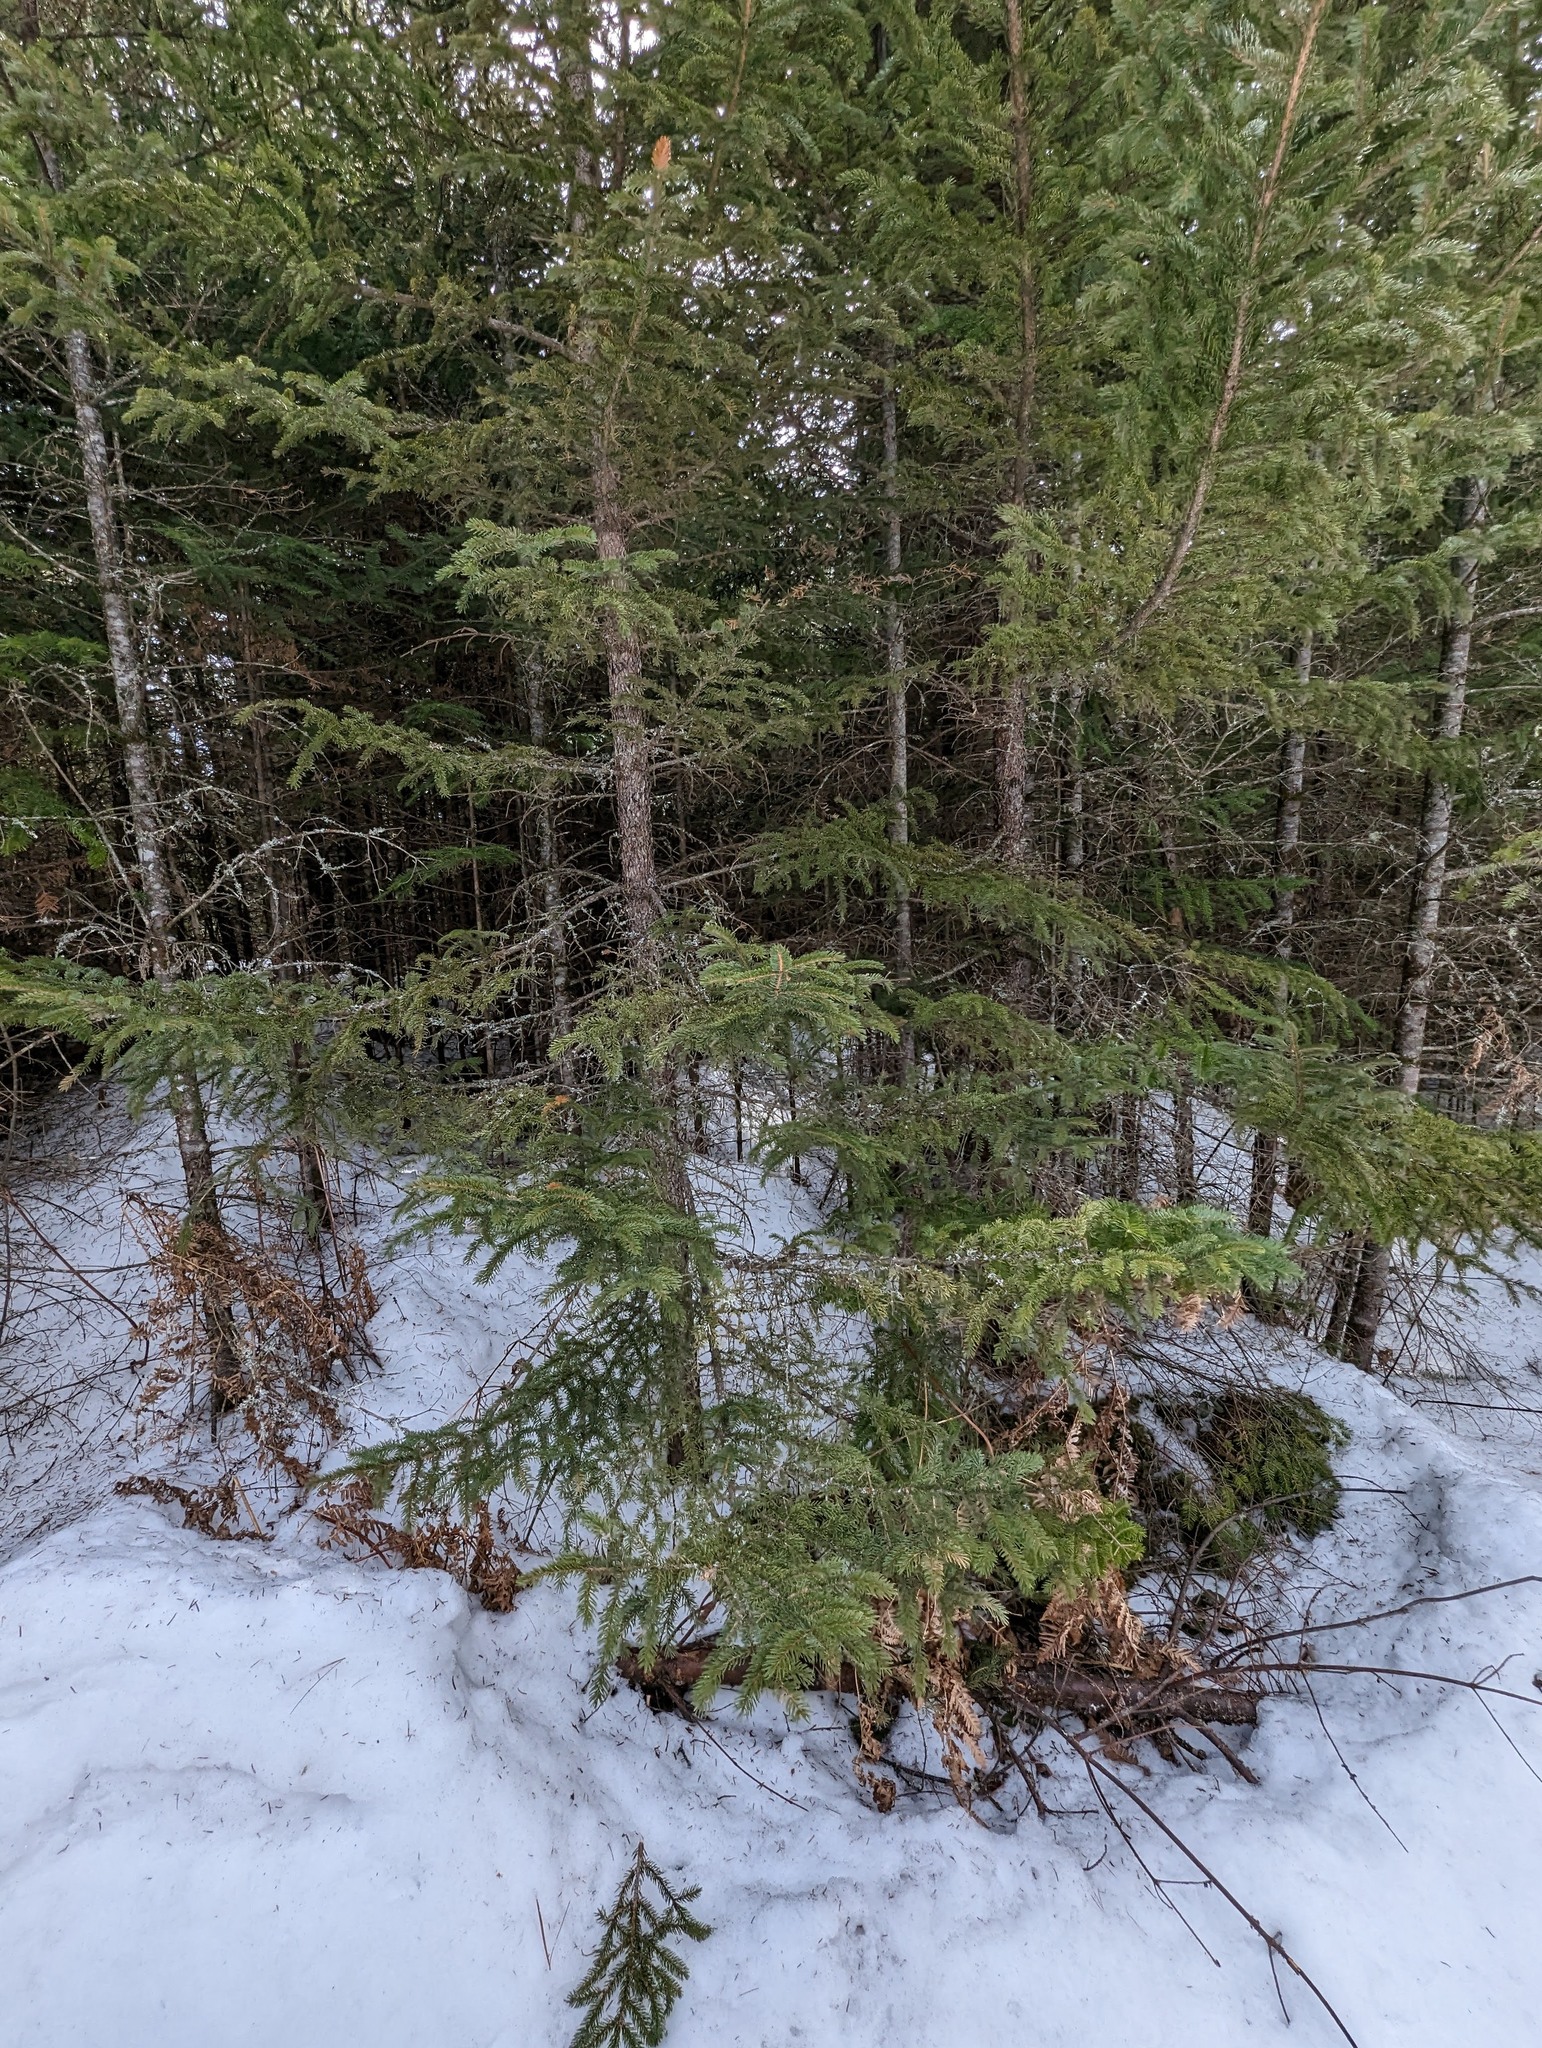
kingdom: Plantae
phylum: Tracheophyta
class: Pinopsida
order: Pinales
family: Pinaceae
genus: Picea
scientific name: Picea rubens
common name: Red spruce
